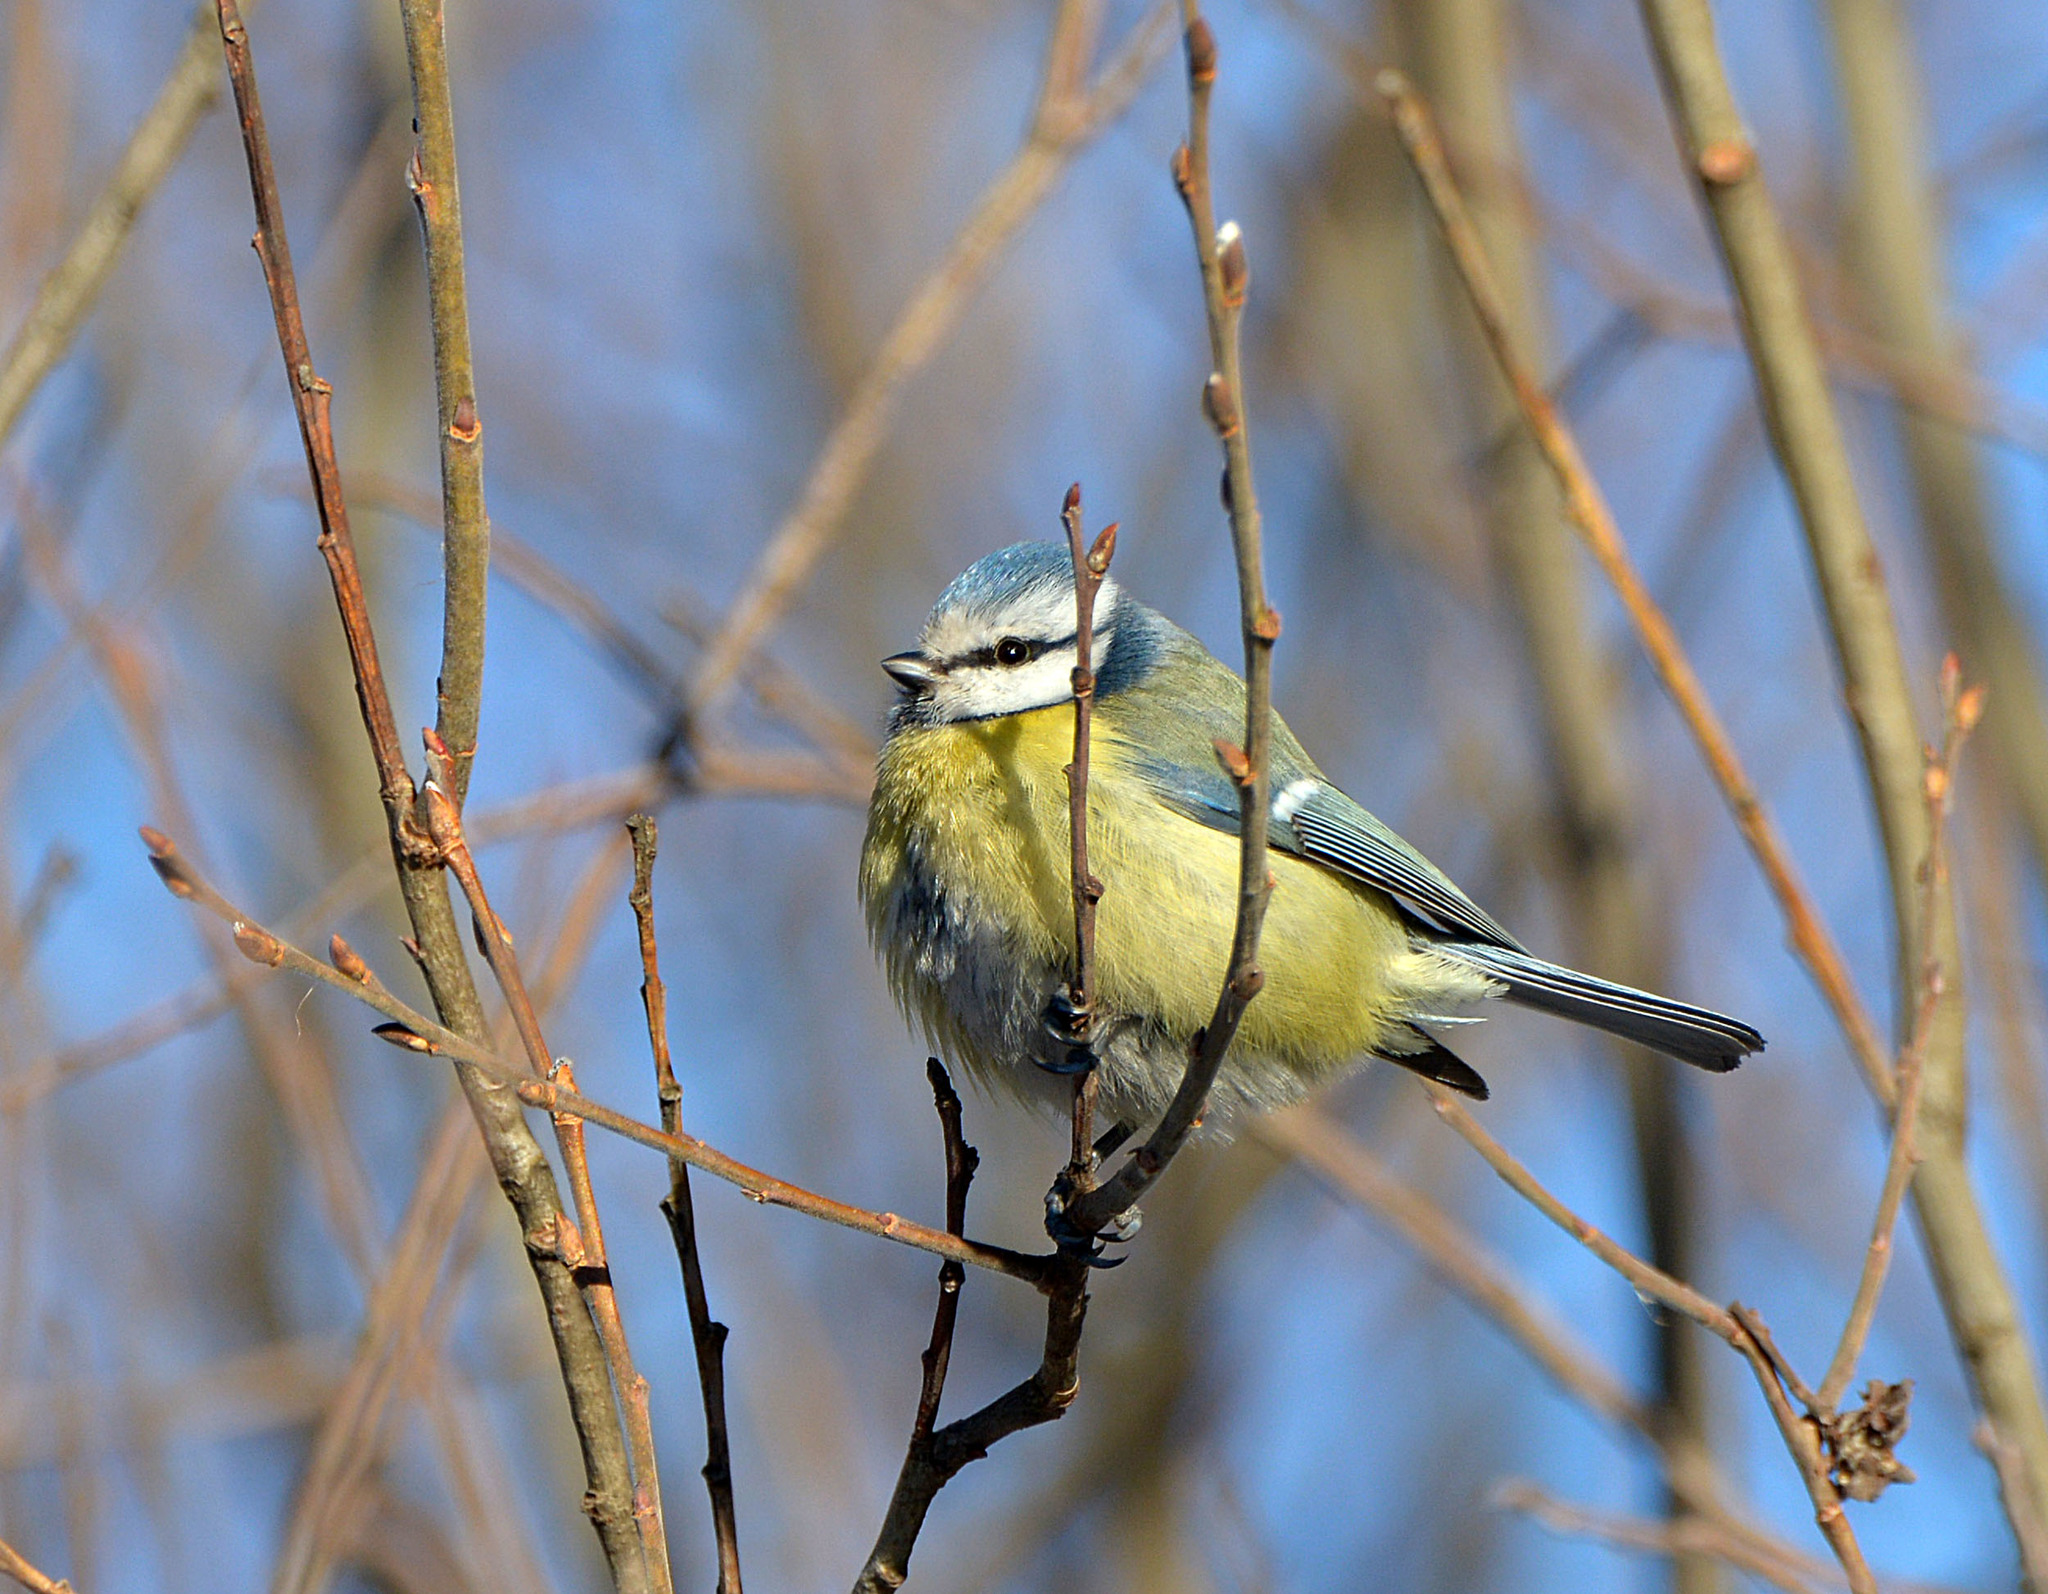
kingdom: Animalia
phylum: Chordata
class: Aves
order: Passeriformes
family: Paridae
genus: Cyanistes
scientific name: Cyanistes caeruleus
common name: Eurasian blue tit
